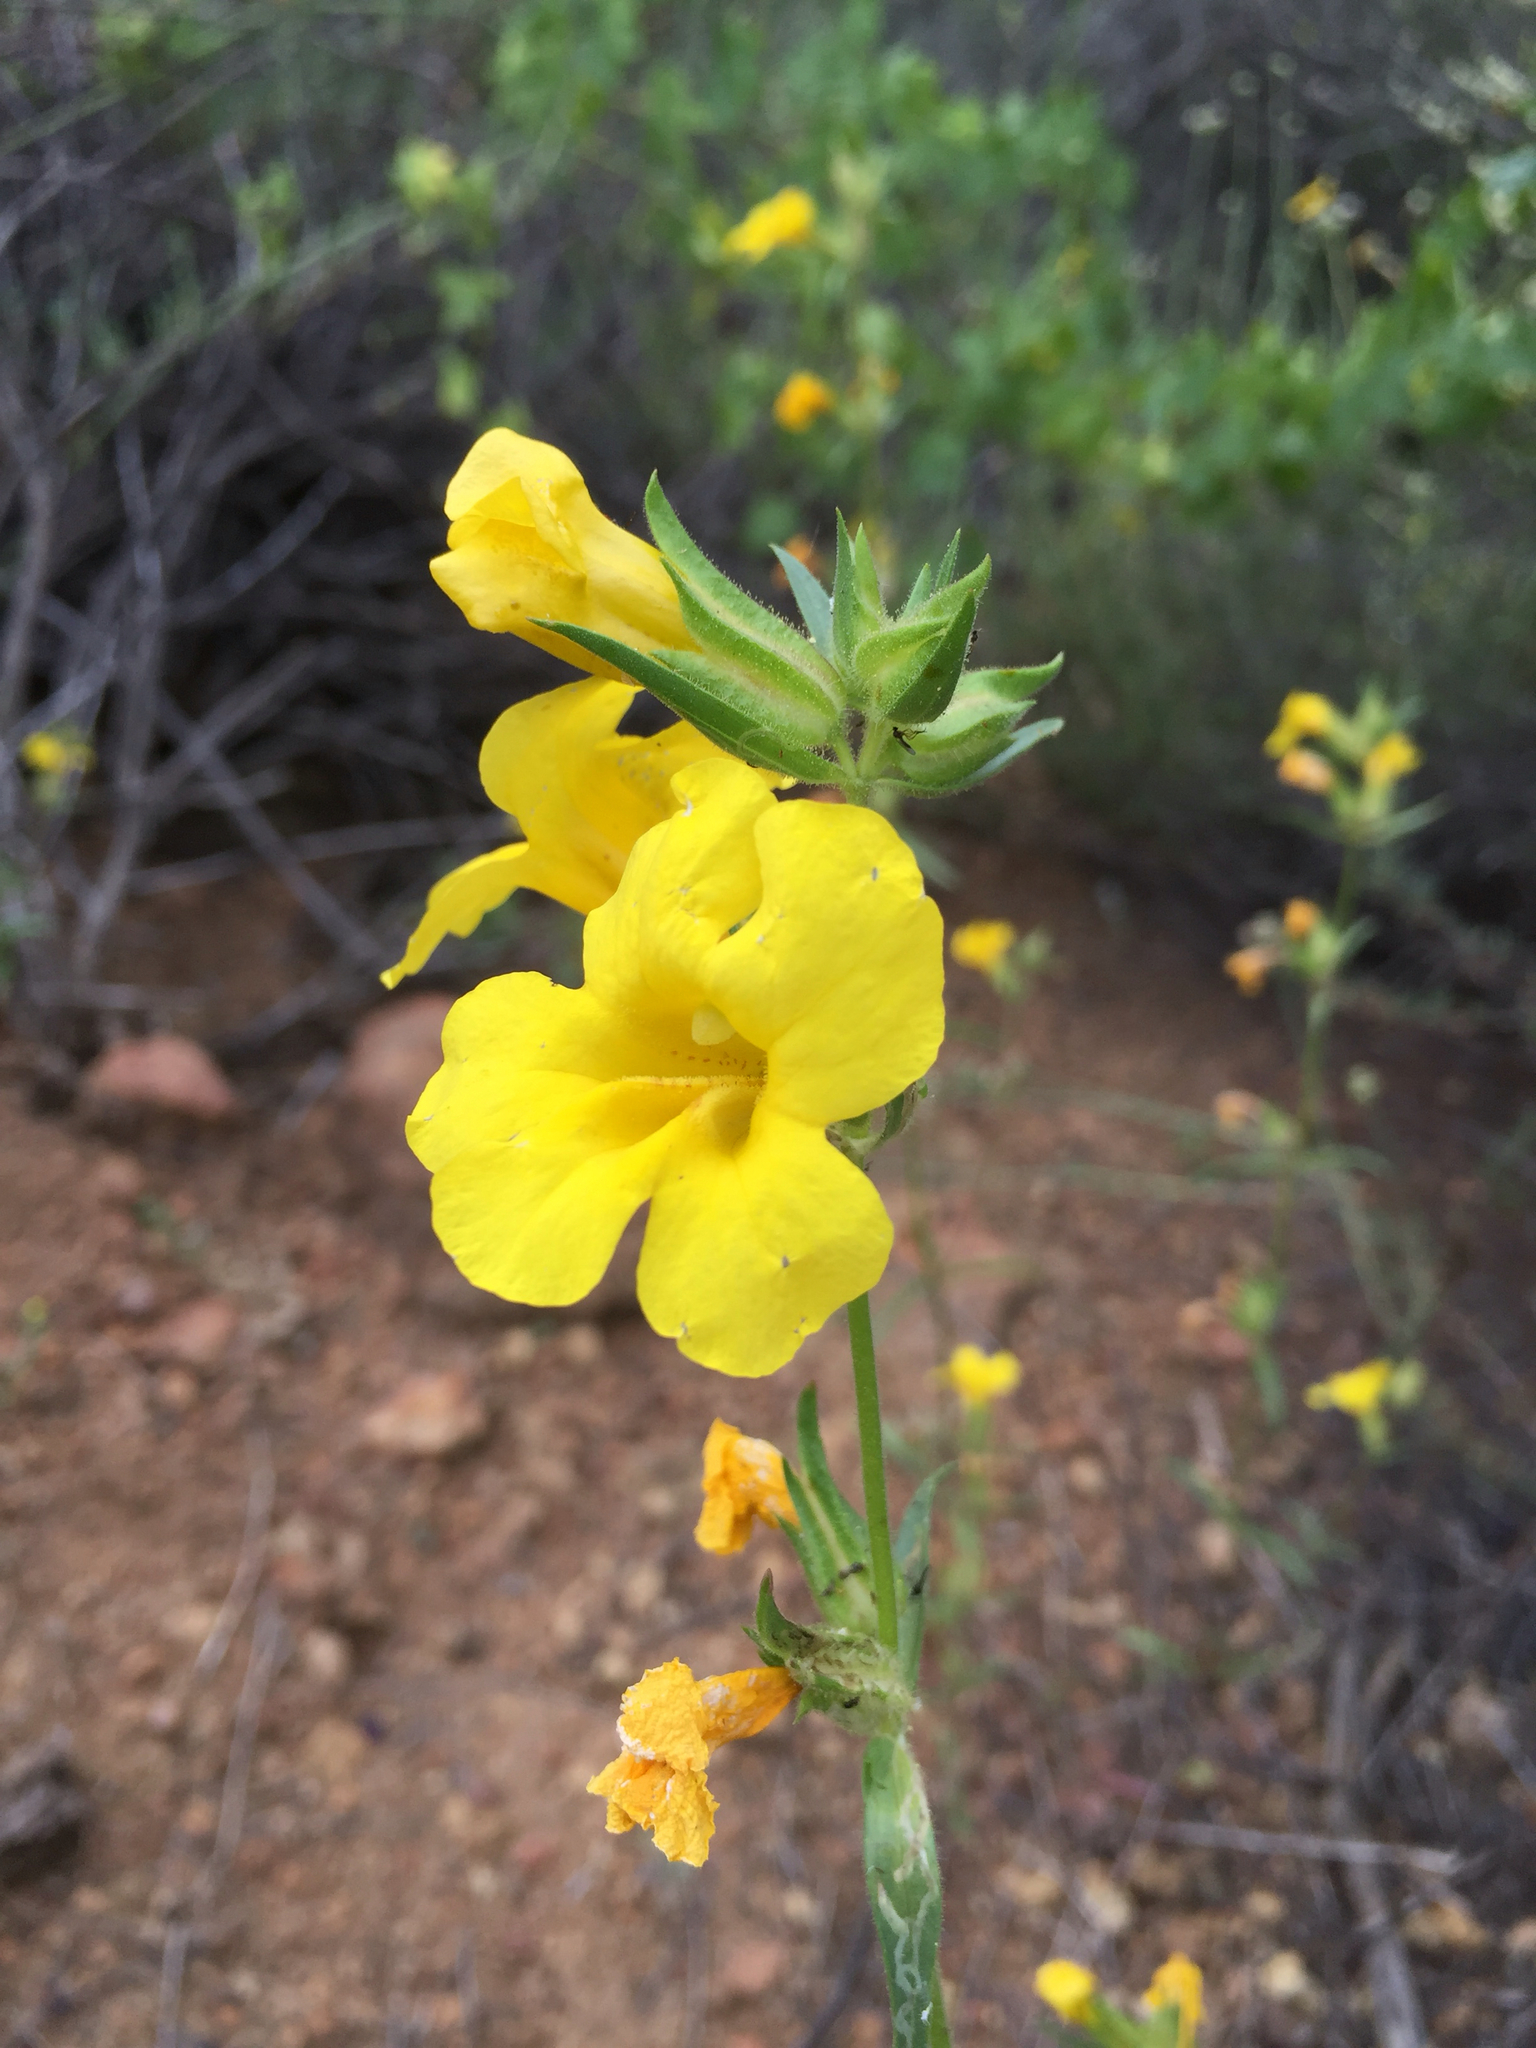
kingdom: Plantae
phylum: Tracheophyta
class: Magnoliopsida
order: Lamiales
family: Phrymaceae
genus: Diplacus
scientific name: Diplacus brevipes
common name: Wide-throat yellow monkey-flower
